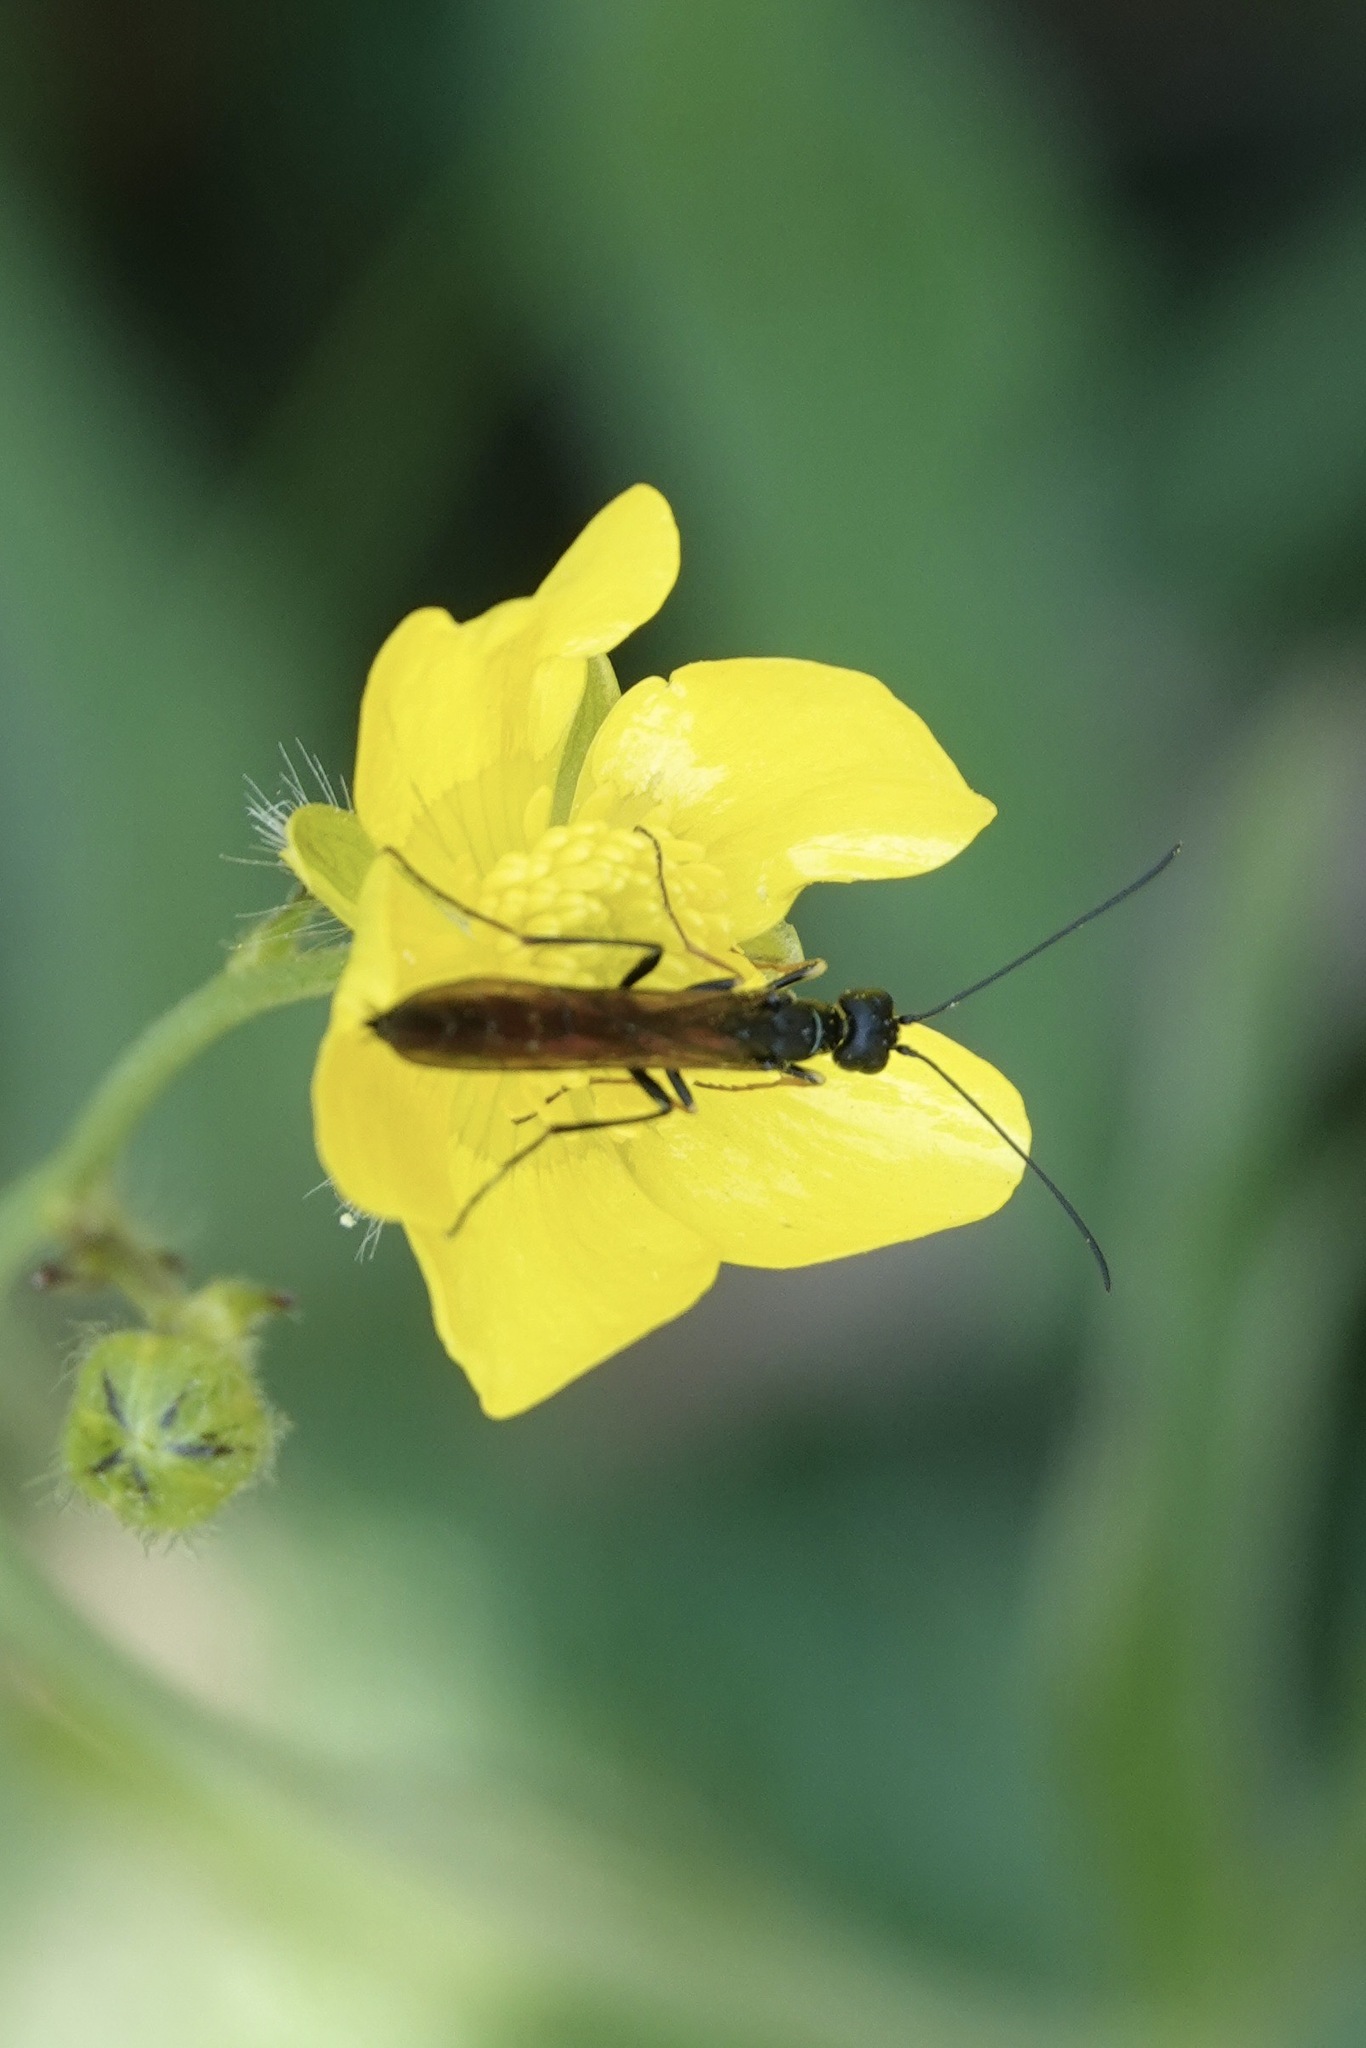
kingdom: Animalia
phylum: Arthropoda
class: Insecta
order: Hymenoptera
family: Cephidae
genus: Calameuta
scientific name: Calameuta filiformis
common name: Reed stem borer
